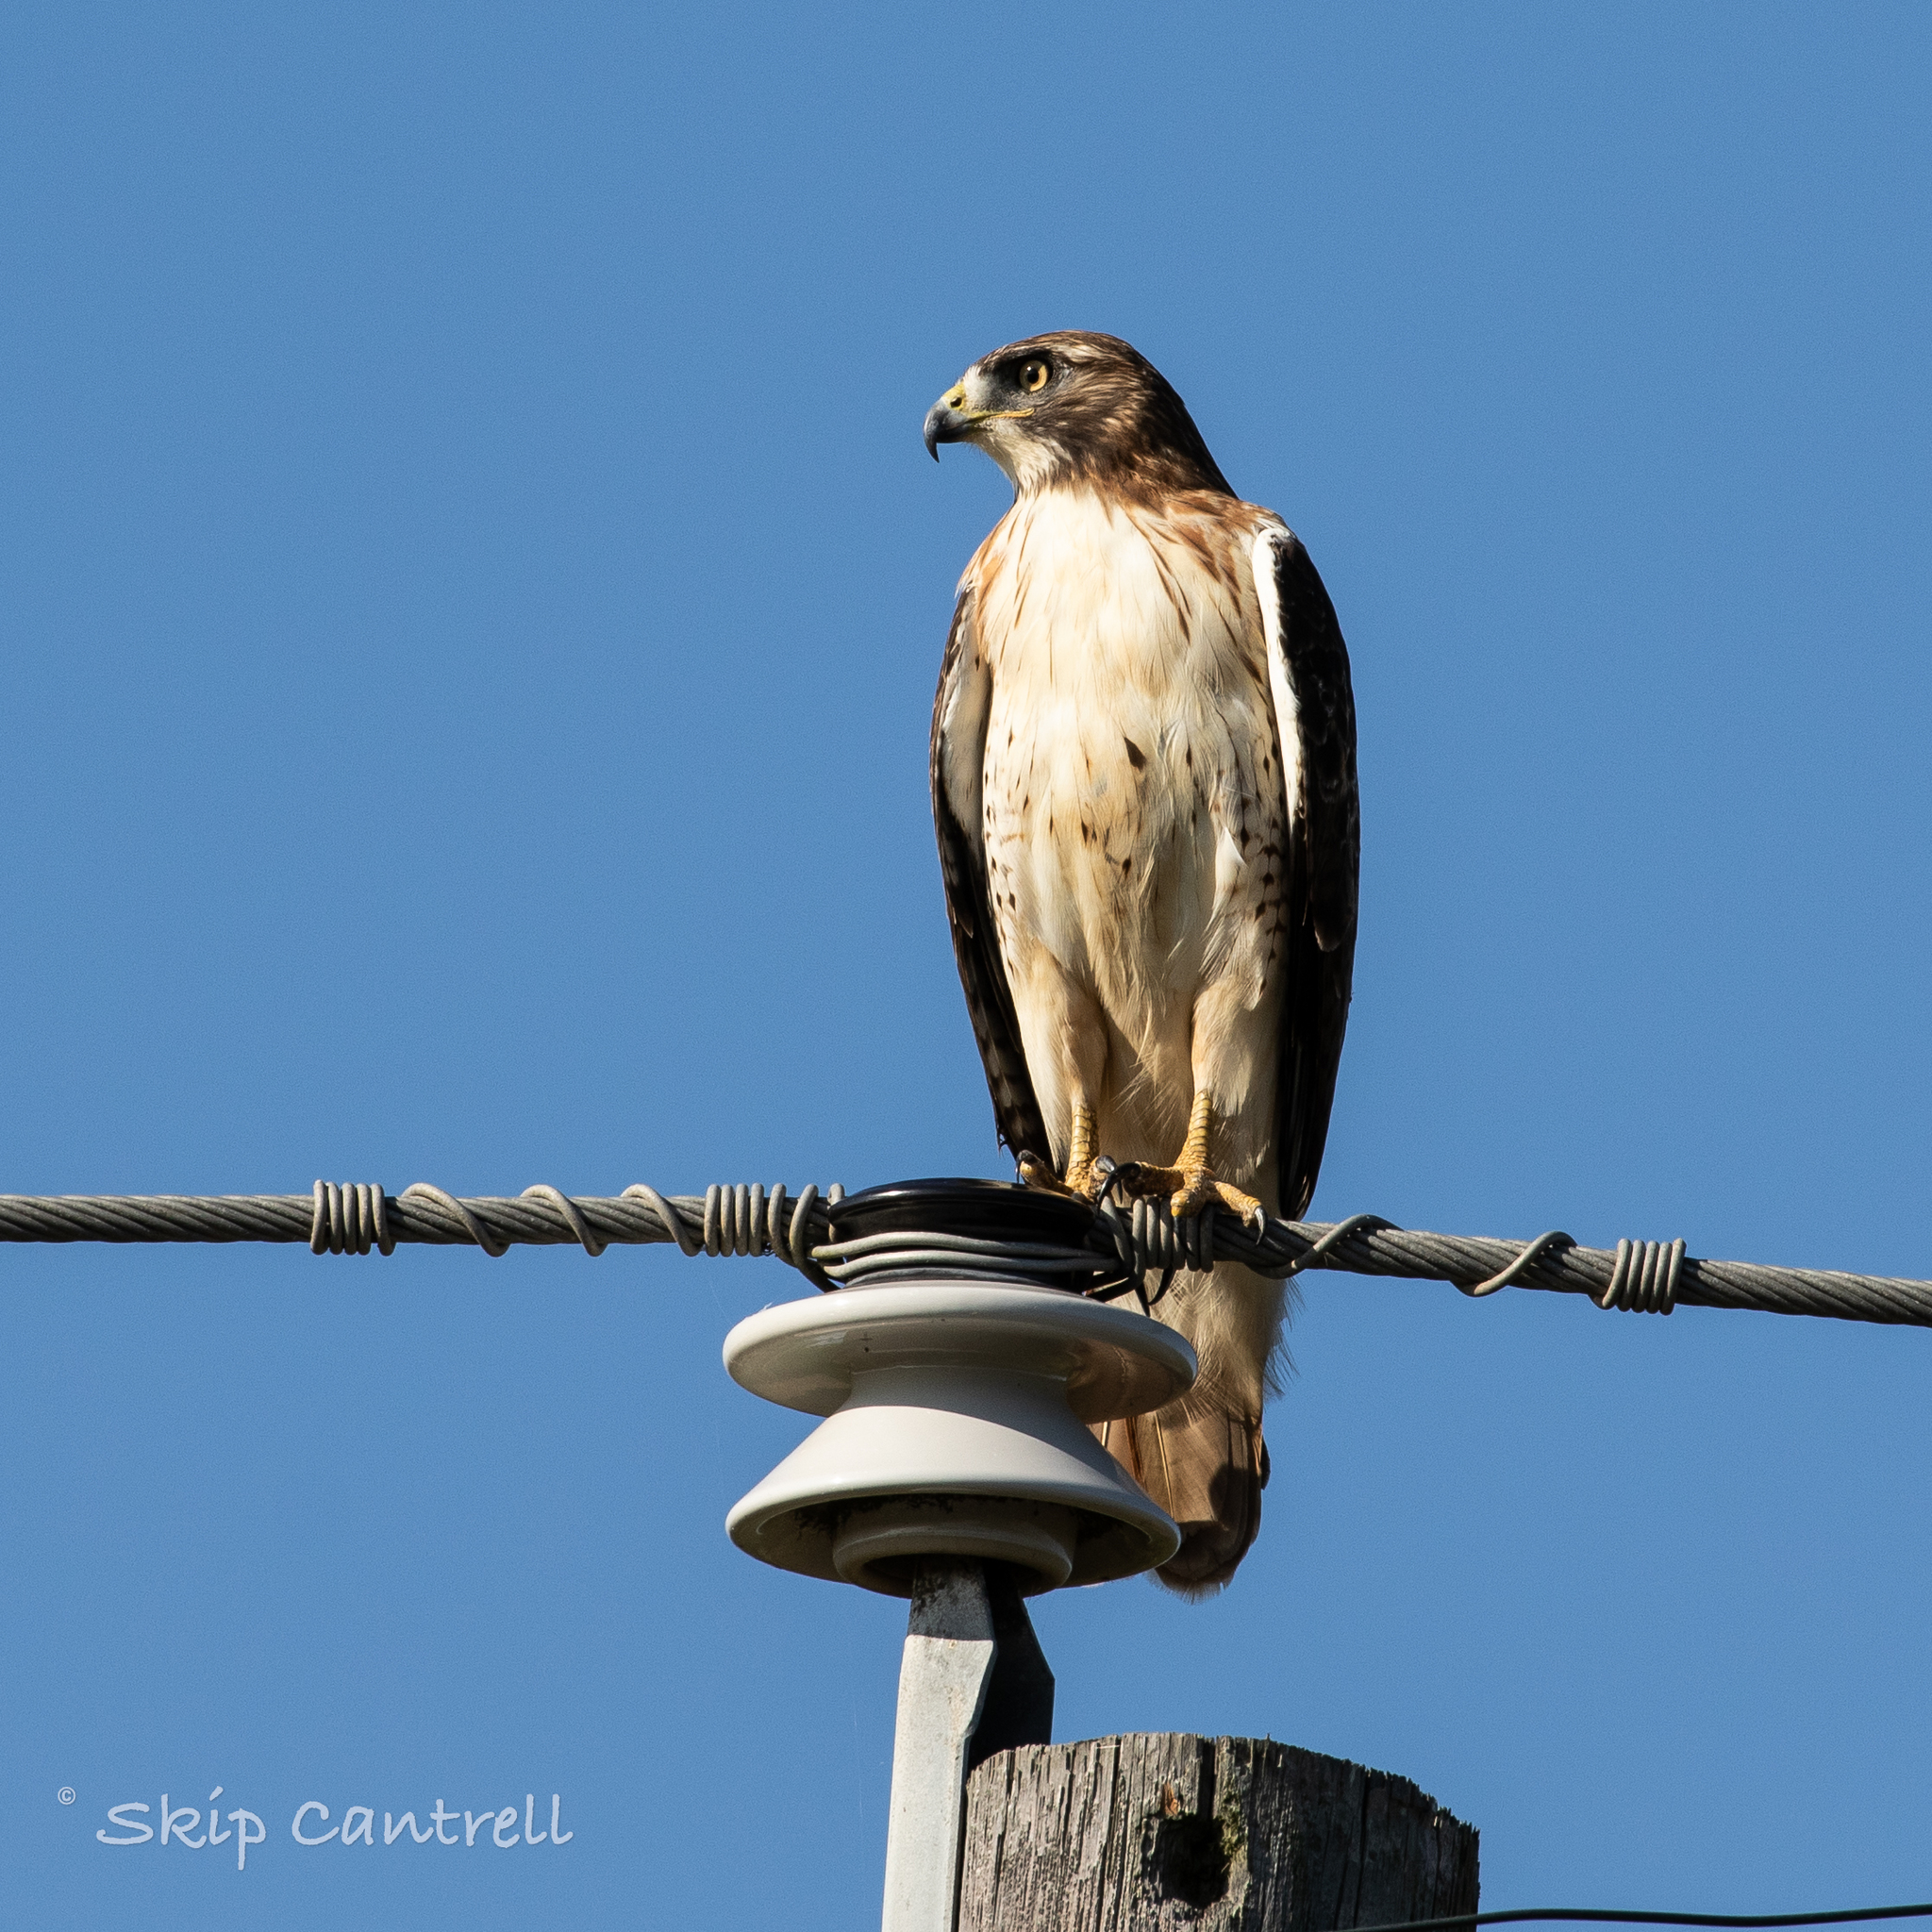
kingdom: Animalia
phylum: Chordata
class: Aves
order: Accipitriformes
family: Accipitridae
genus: Buteo
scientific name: Buteo jamaicensis
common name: Red-tailed hawk
